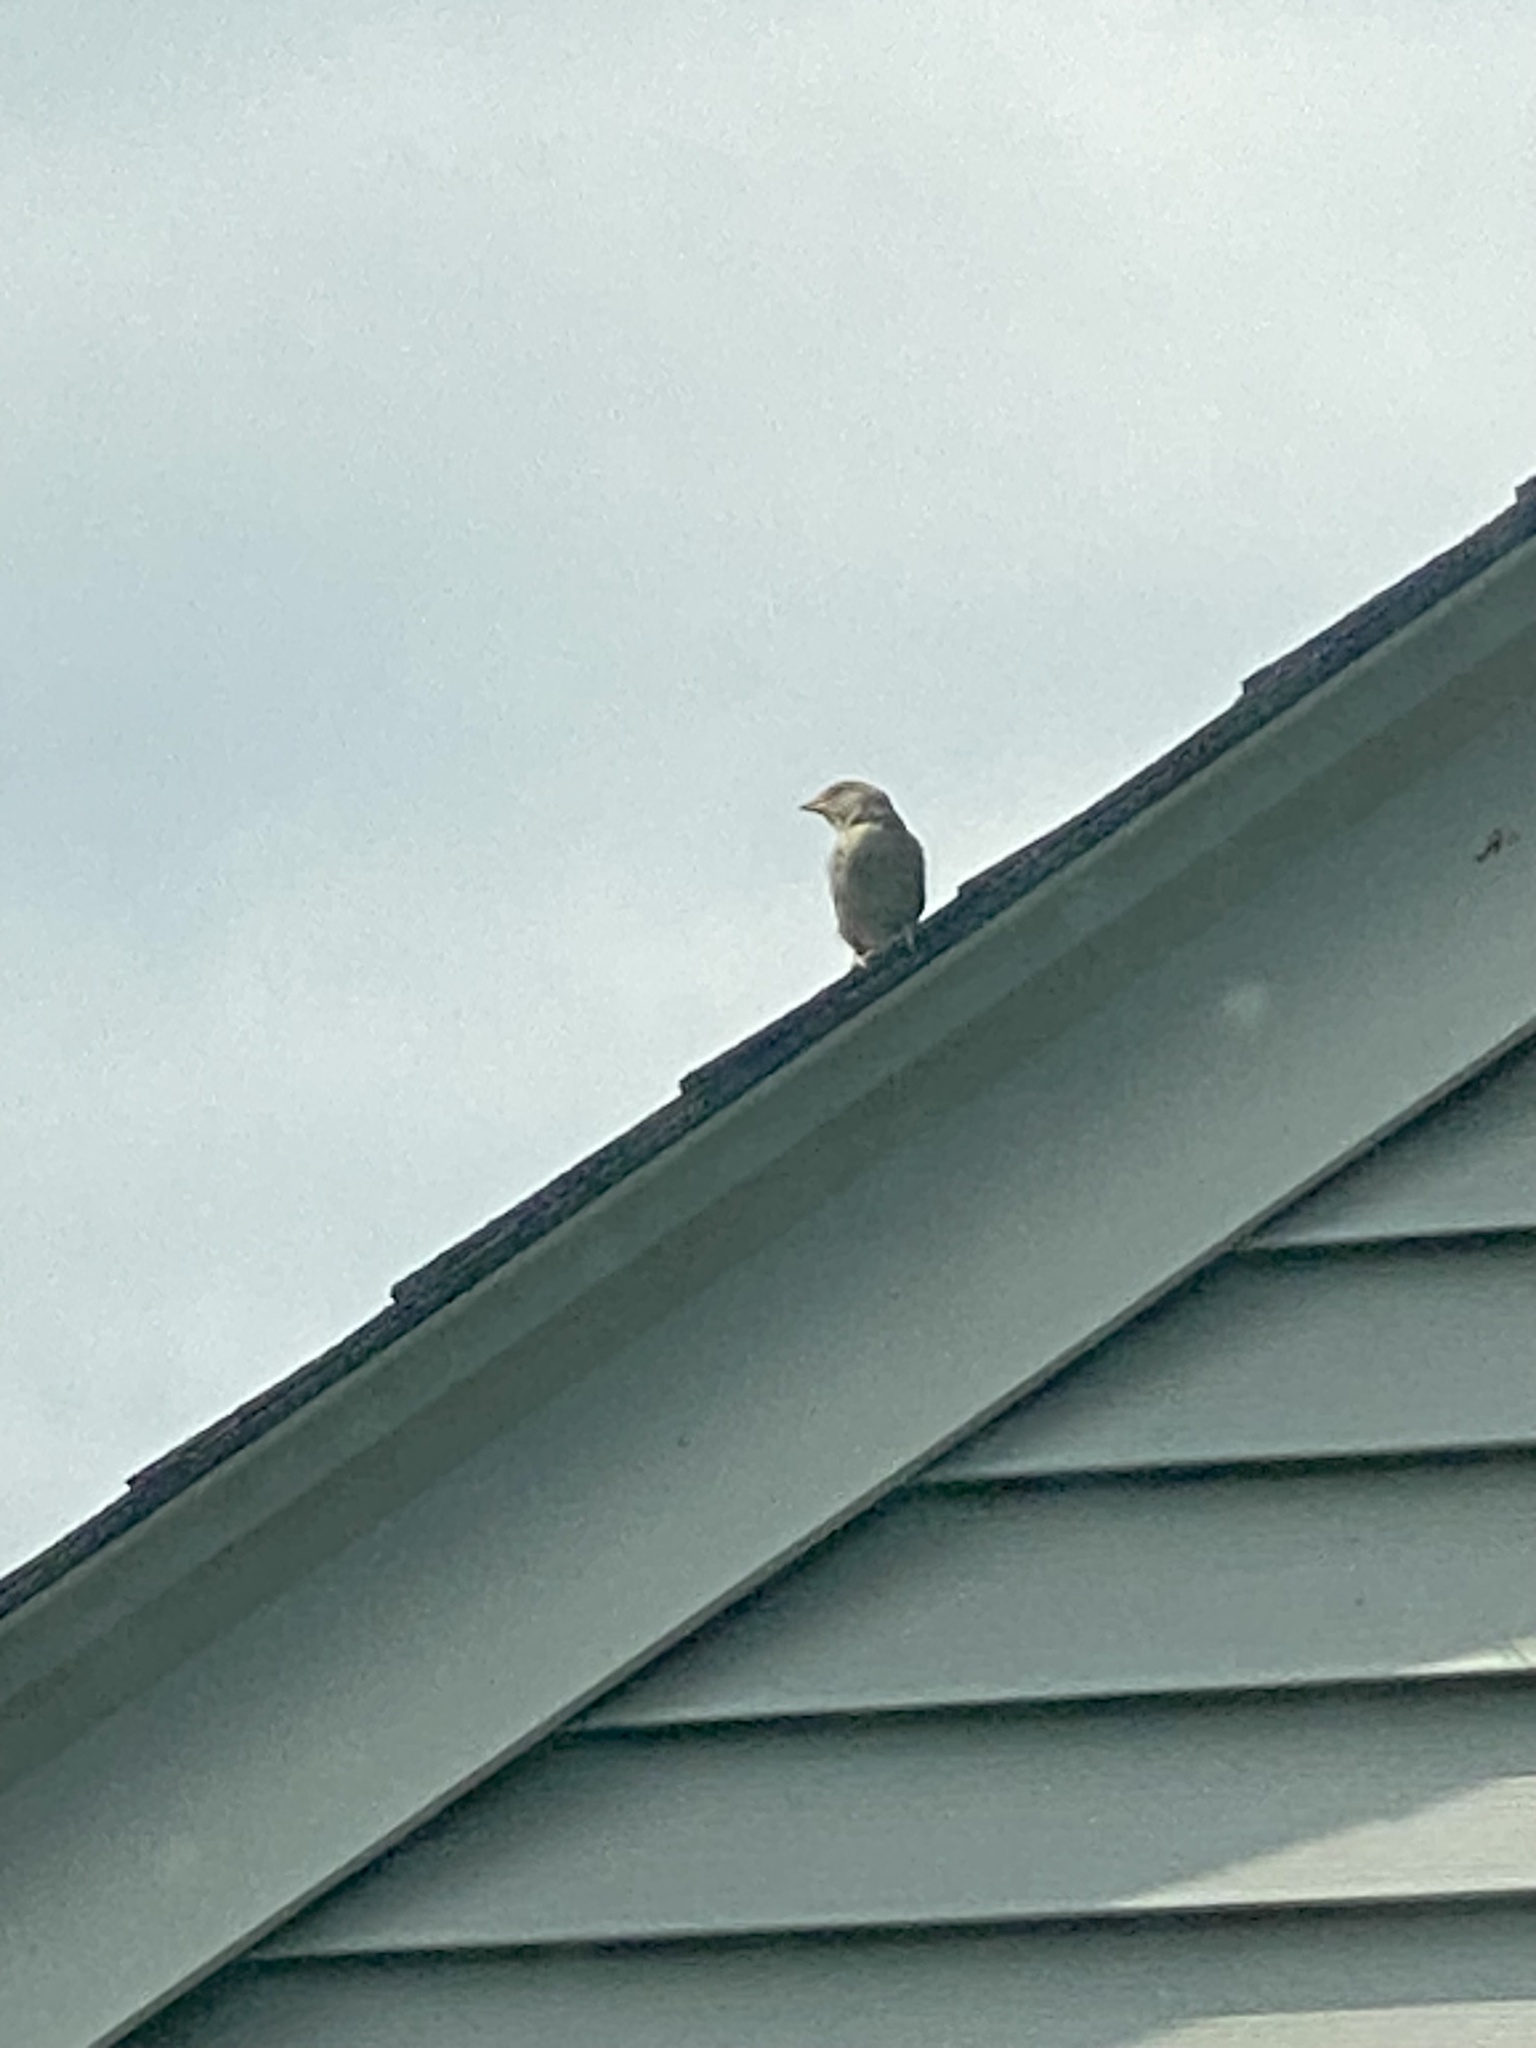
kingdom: Animalia
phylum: Chordata
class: Aves
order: Passeriformes
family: Passeridae
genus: Passer
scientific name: Passer domesticus
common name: House sparrow
